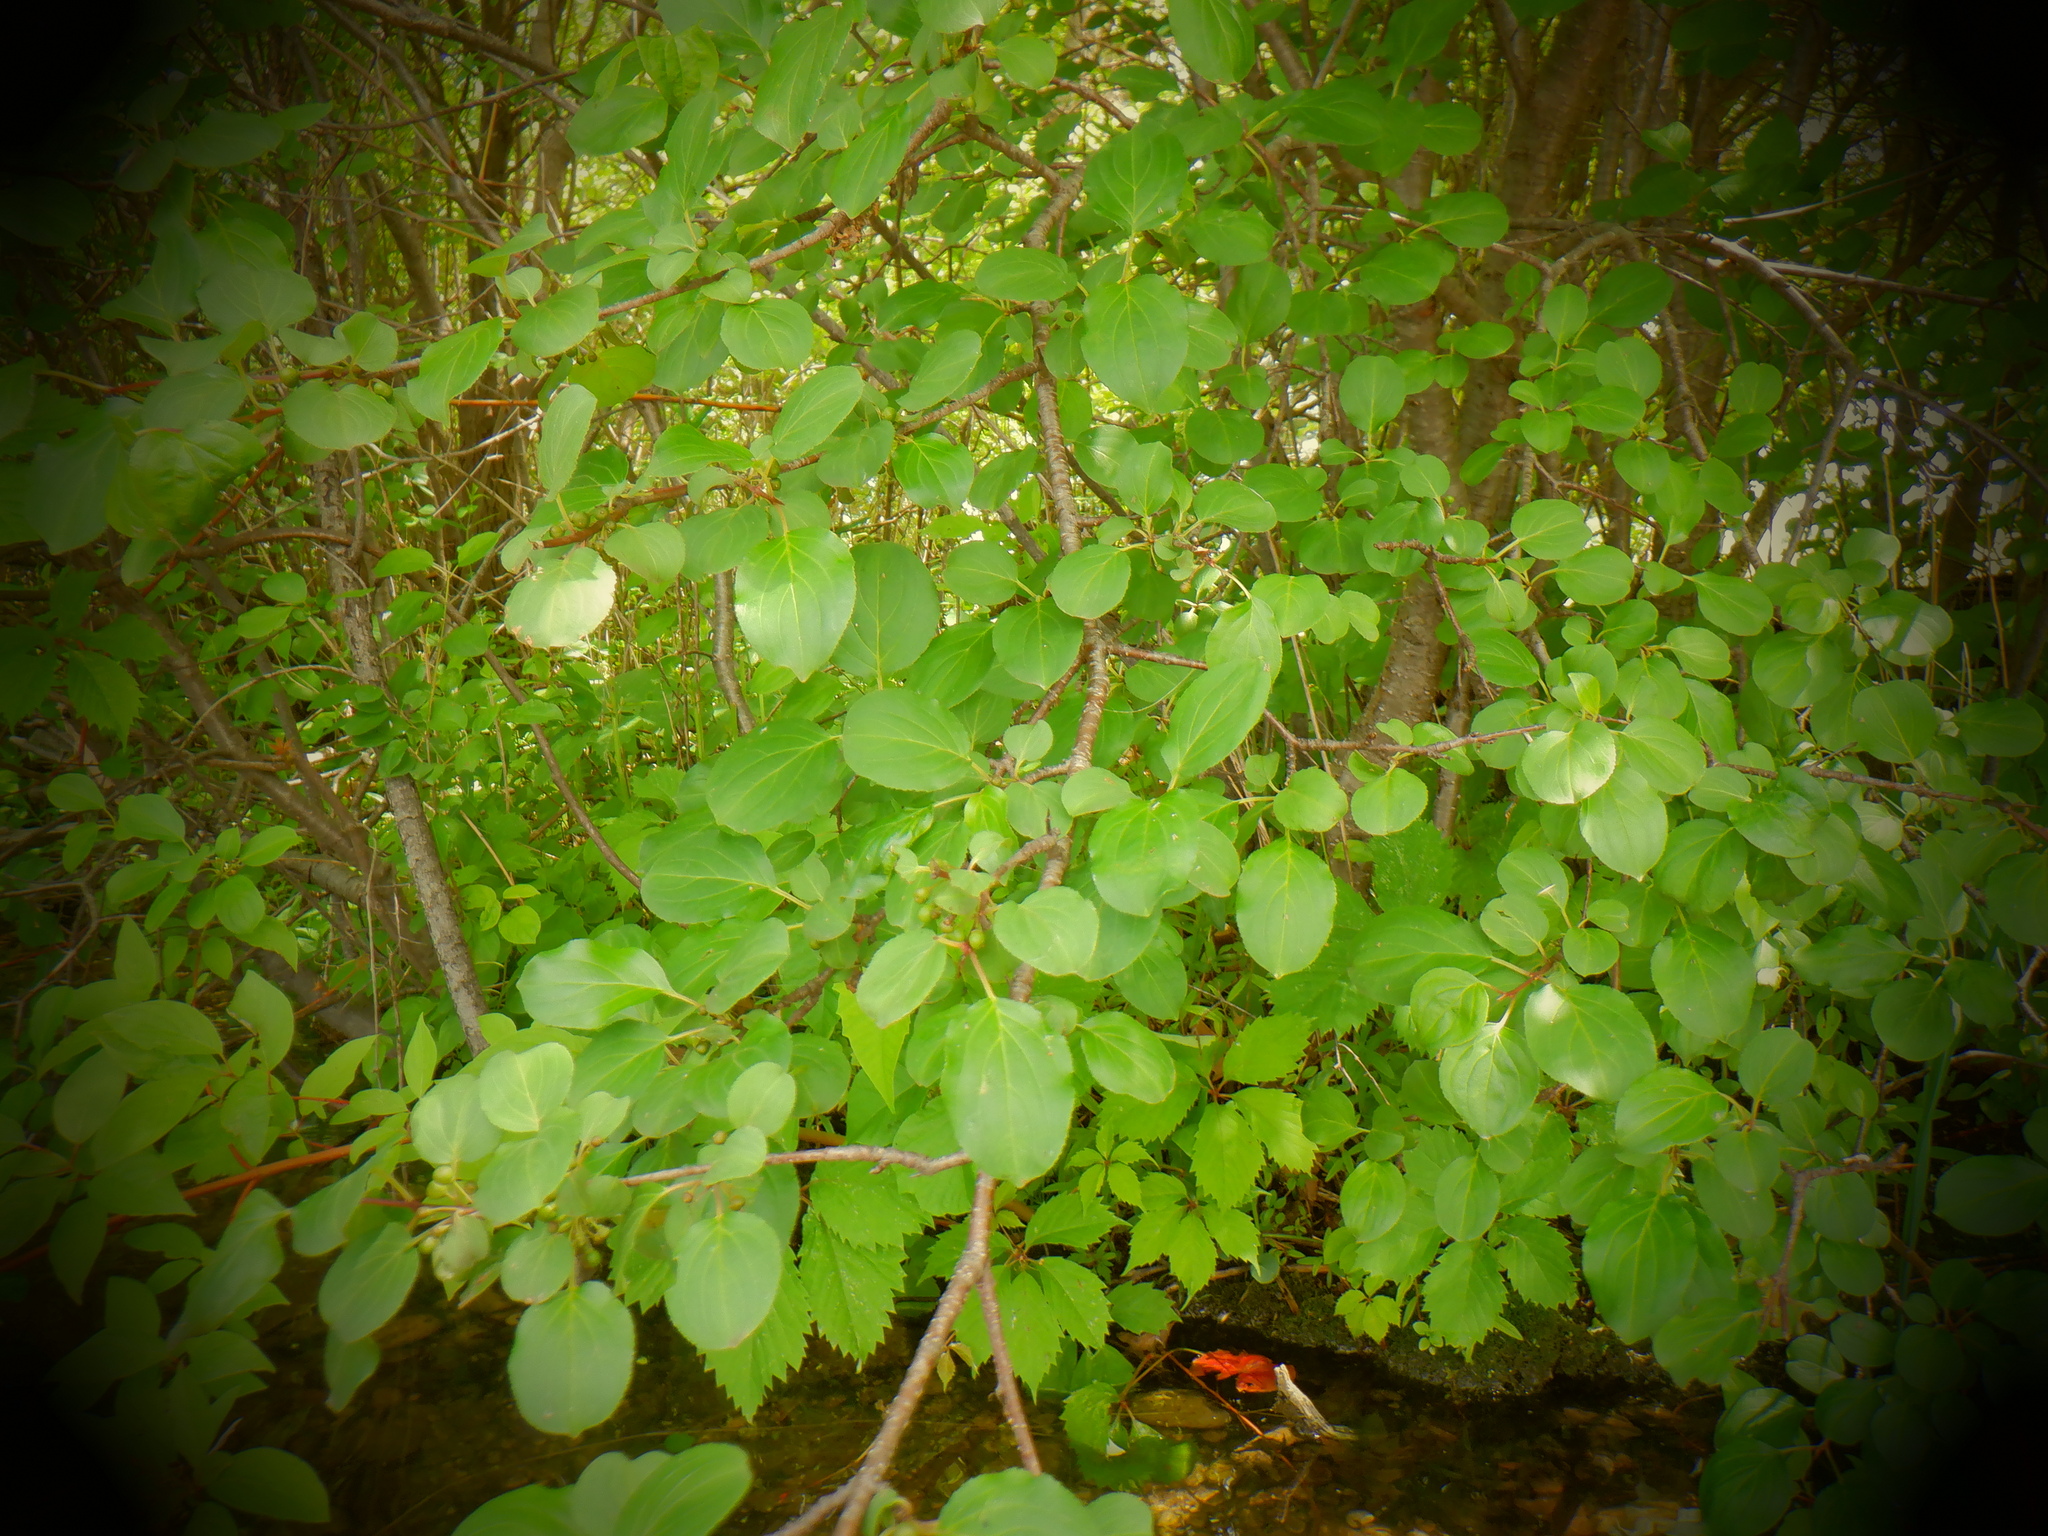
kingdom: Plantae
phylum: Tracheophyta
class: Magnoliopsida
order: Rosales
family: Rhamnaceae
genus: Rhamnus
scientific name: Rhamnus cathartica
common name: Common buckthorn
